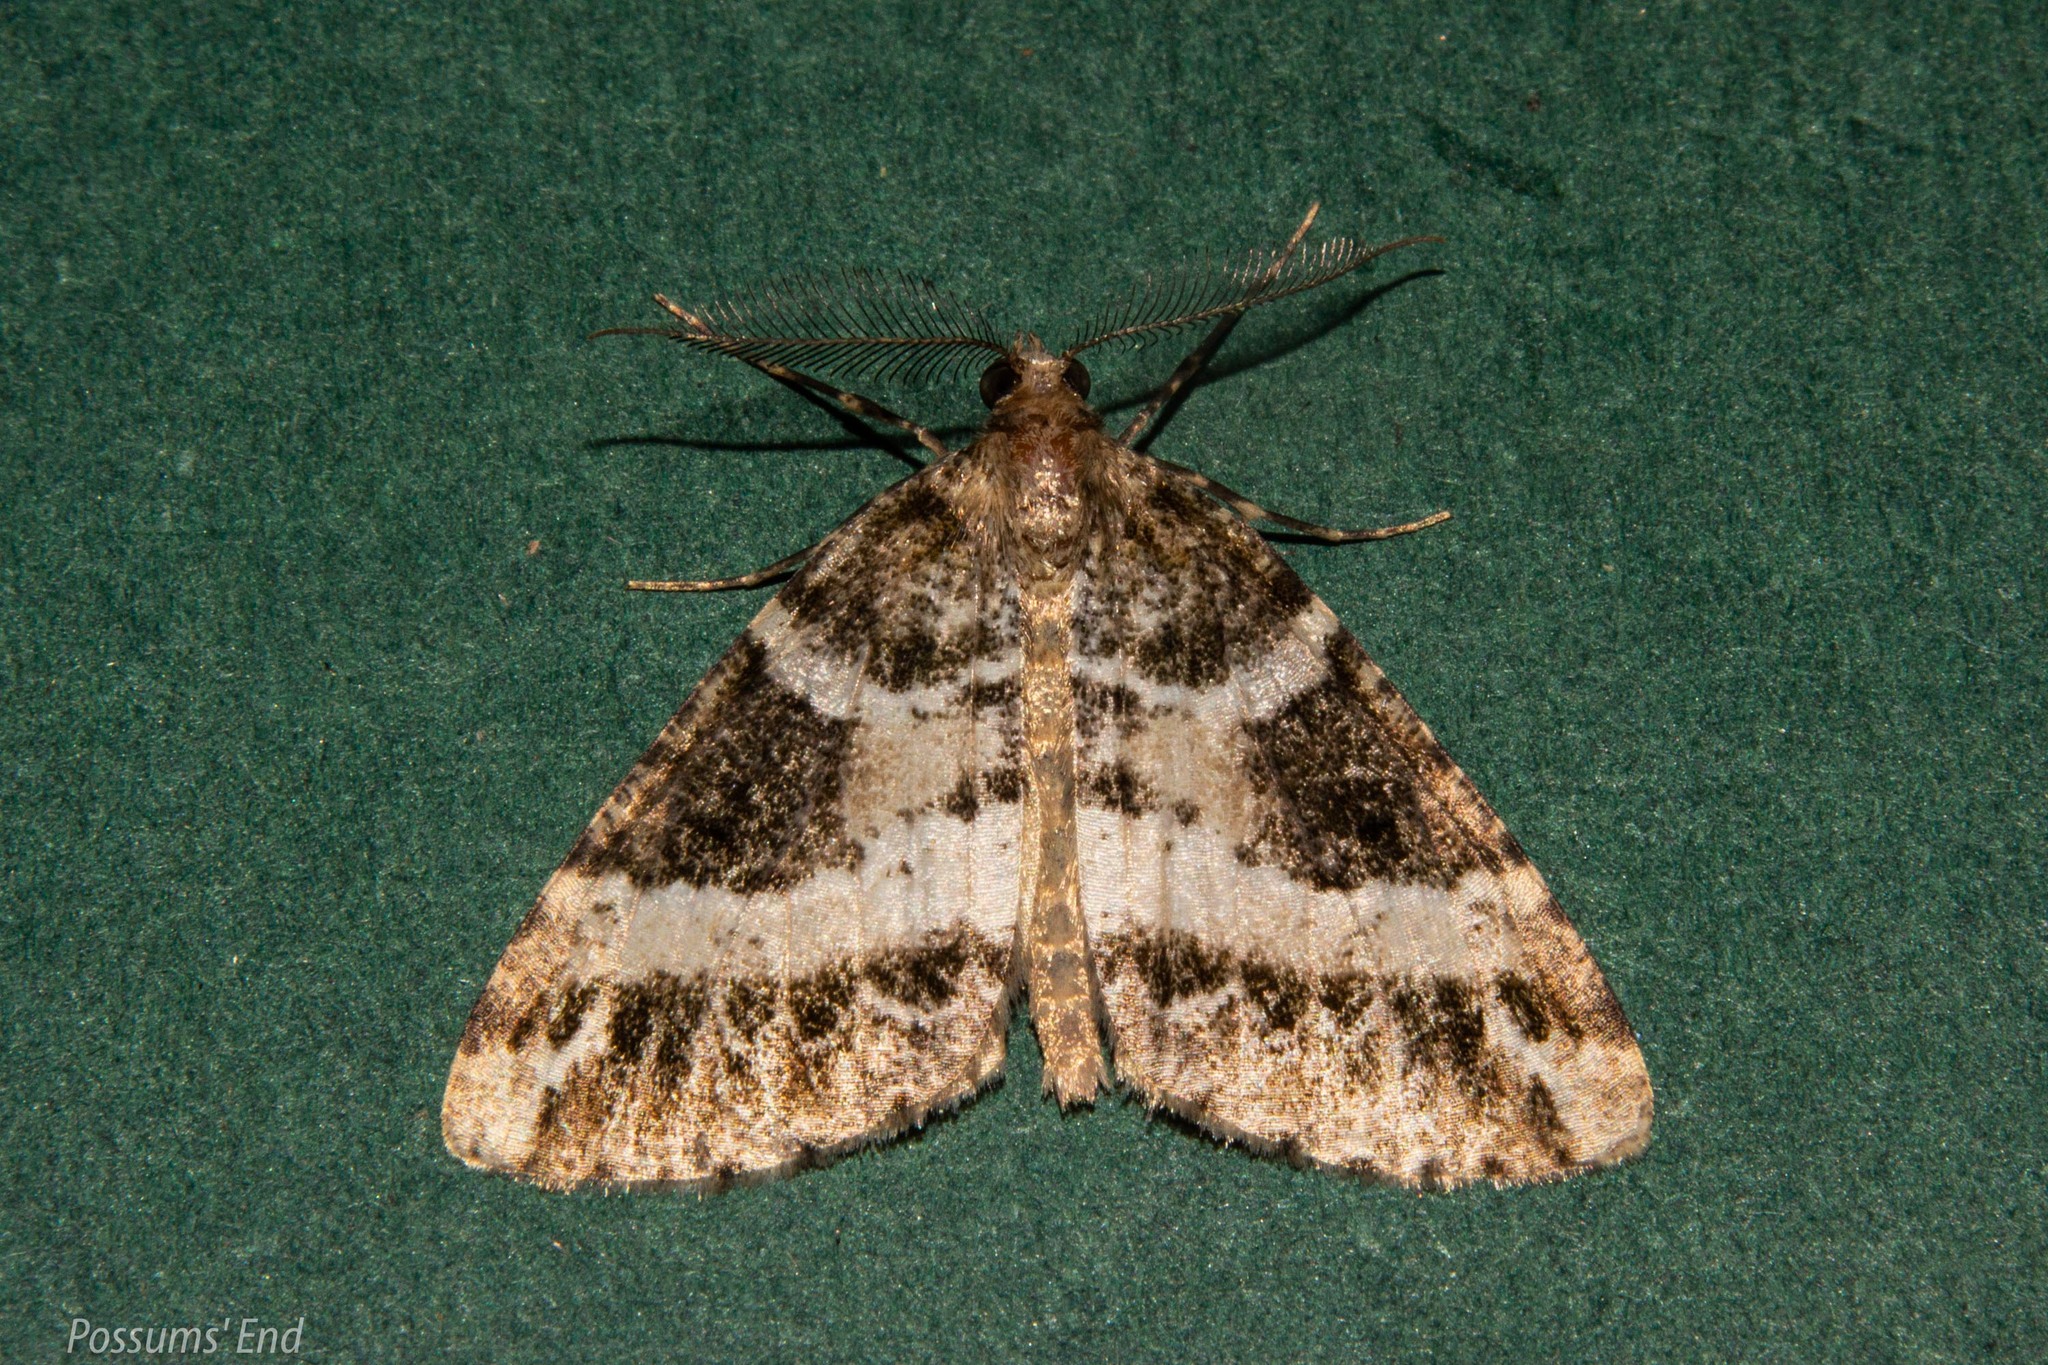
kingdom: Animalia
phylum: Arthropoda
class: Insecta
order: Lepidoptera
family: Geometridae
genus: Pseudocoremia
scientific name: Pseudocoremia
